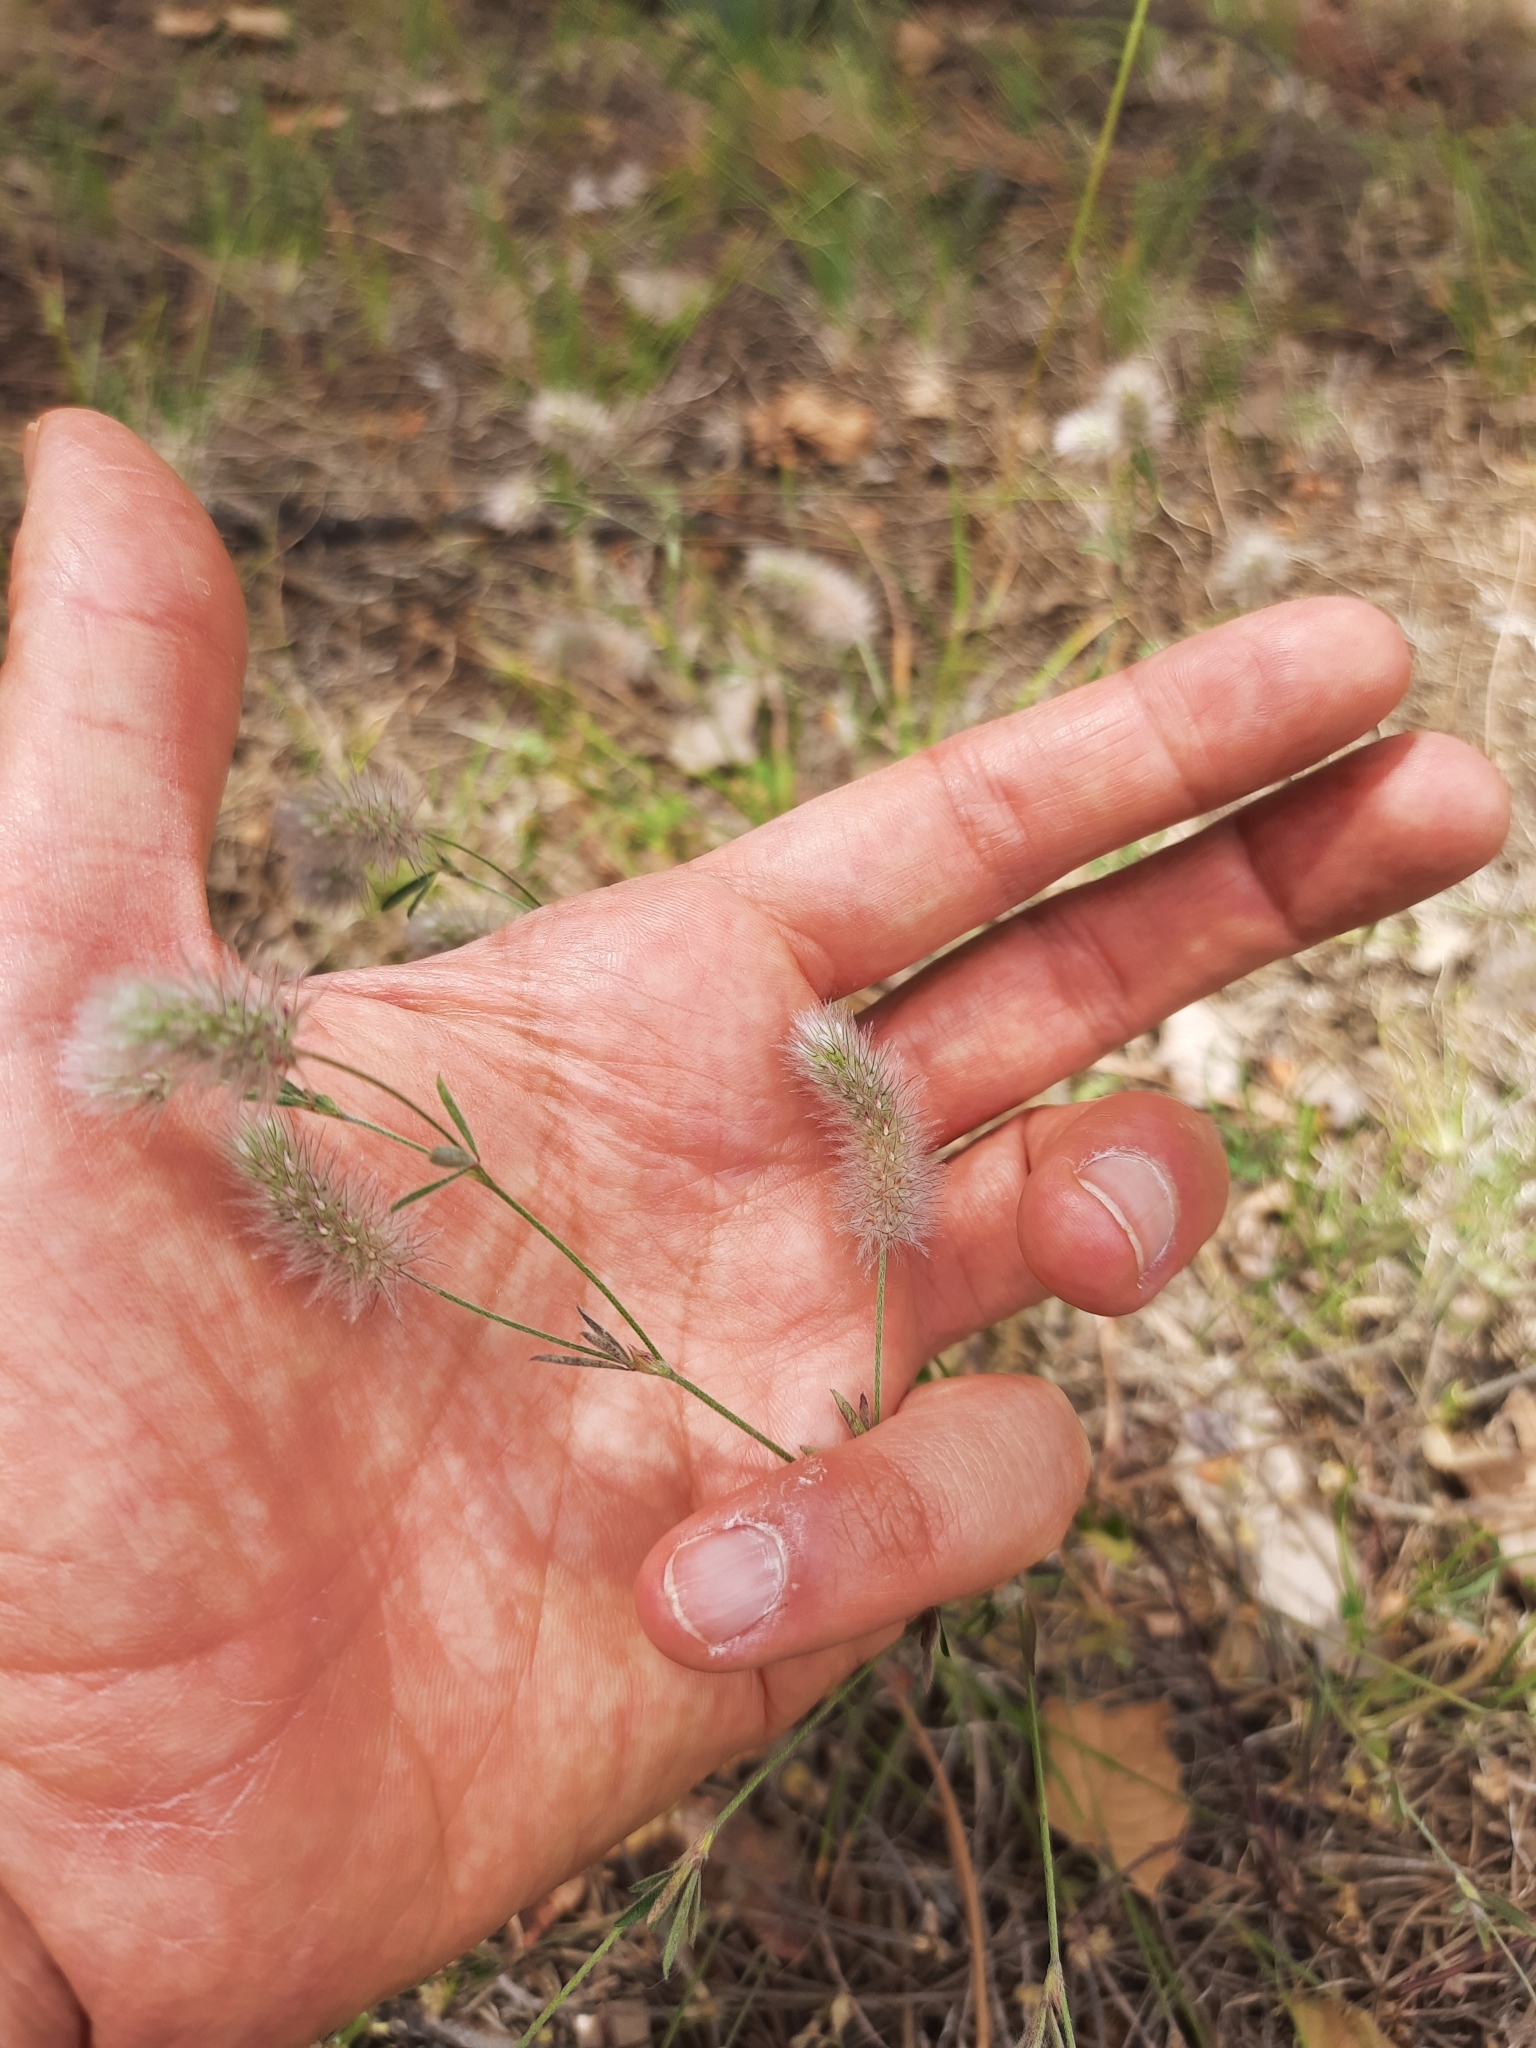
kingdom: Plantae
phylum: Tracheophyta
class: Magnoliopsida
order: Fabales
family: Fabaceae
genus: Trifolium
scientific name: Trifolium arvense
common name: Hare's-foot clover
